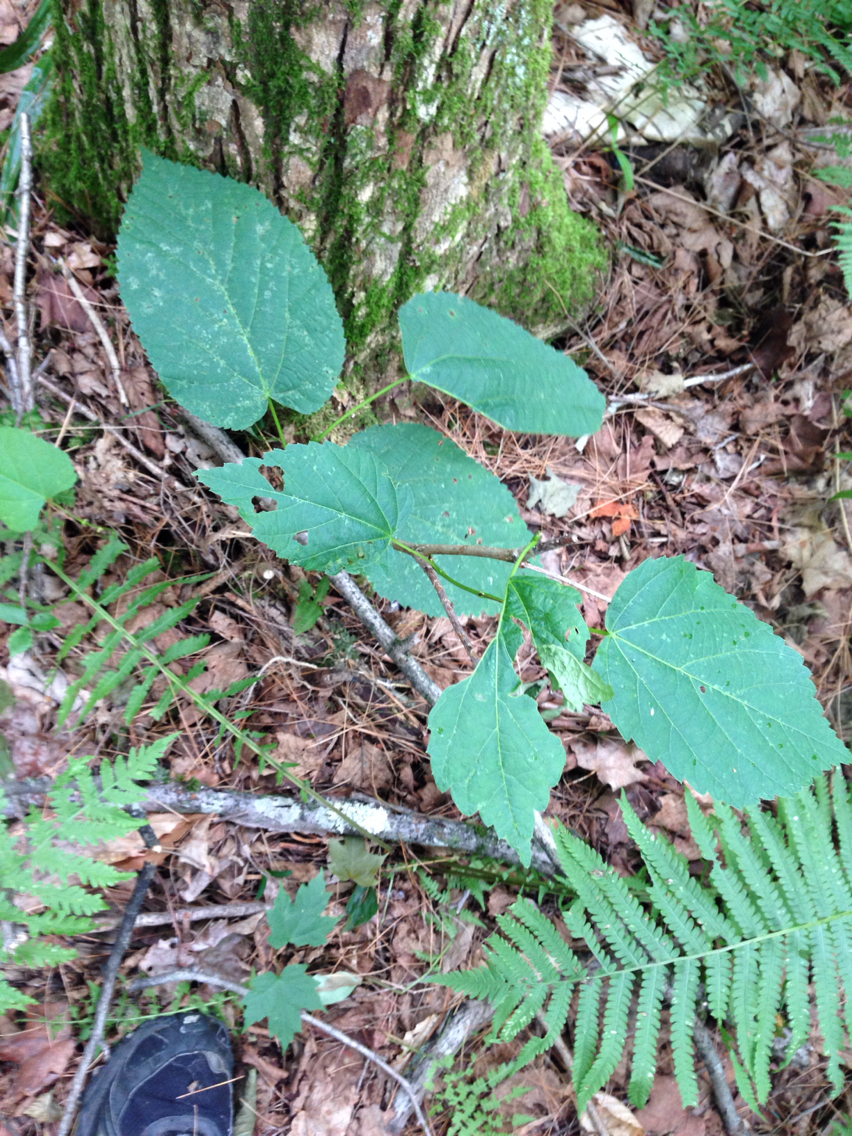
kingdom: Plantae
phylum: Tracheophyta
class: Magnoliopsida
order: Malvales
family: Malvaceae
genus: Tilia
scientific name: Tilia americana
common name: Basswood
